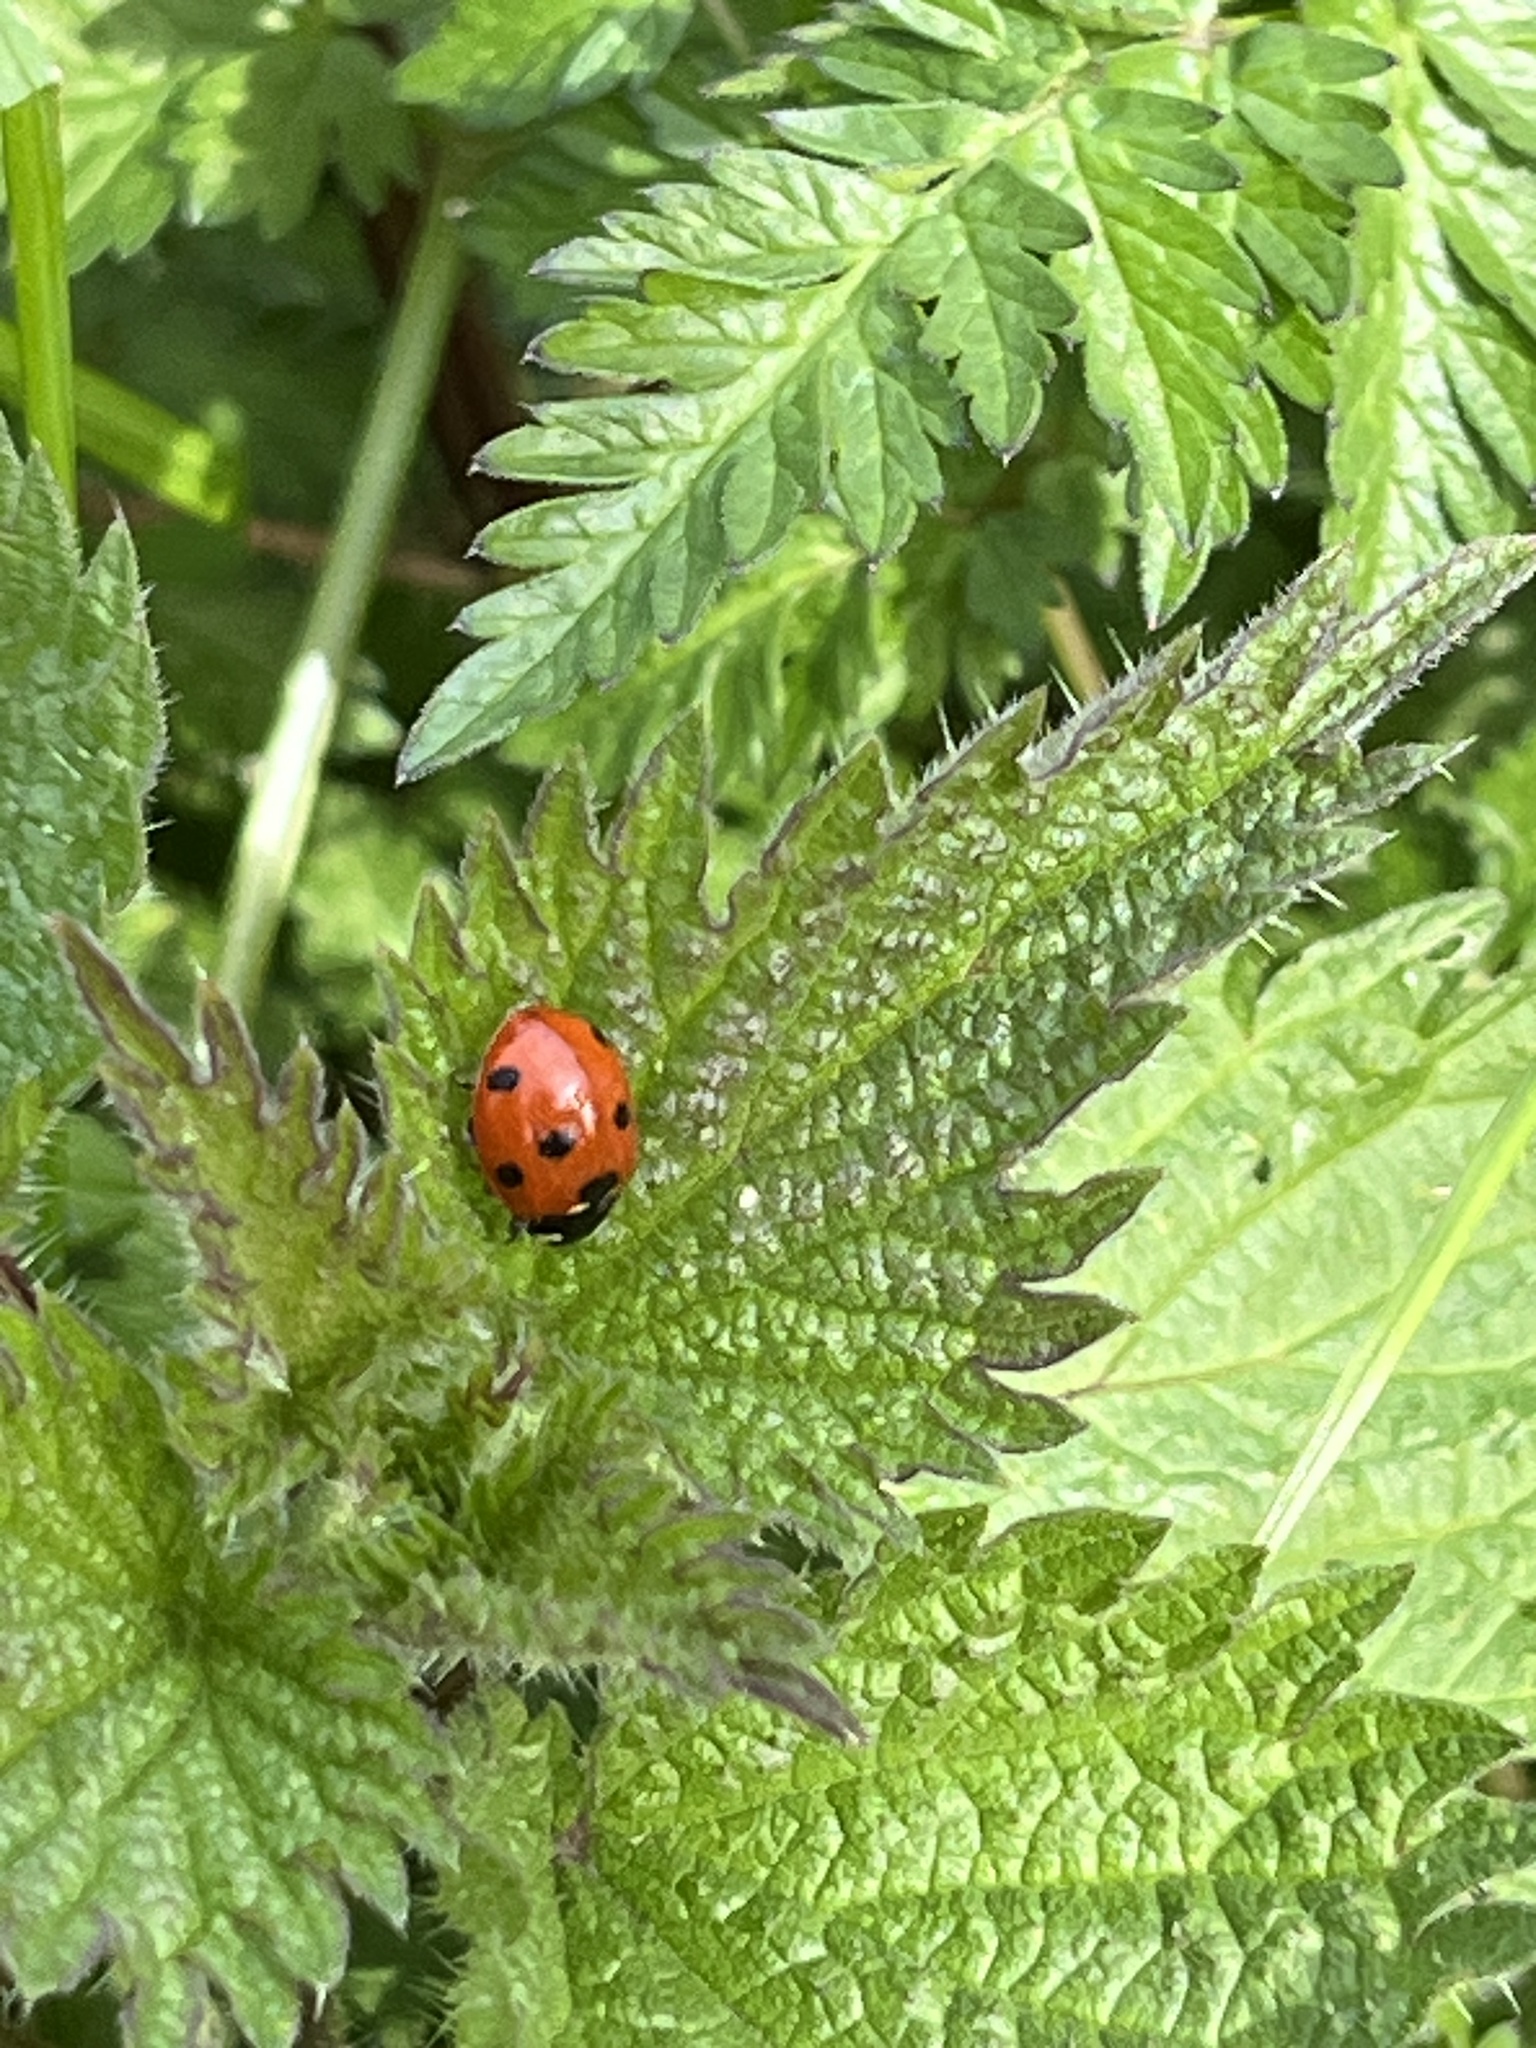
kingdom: Animalia
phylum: Arthropoda
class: Insecta
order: Coleoptera
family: Coccinellidae
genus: Coccinella
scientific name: Coccinella septempunctata
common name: Sevenspotted lady beetle
